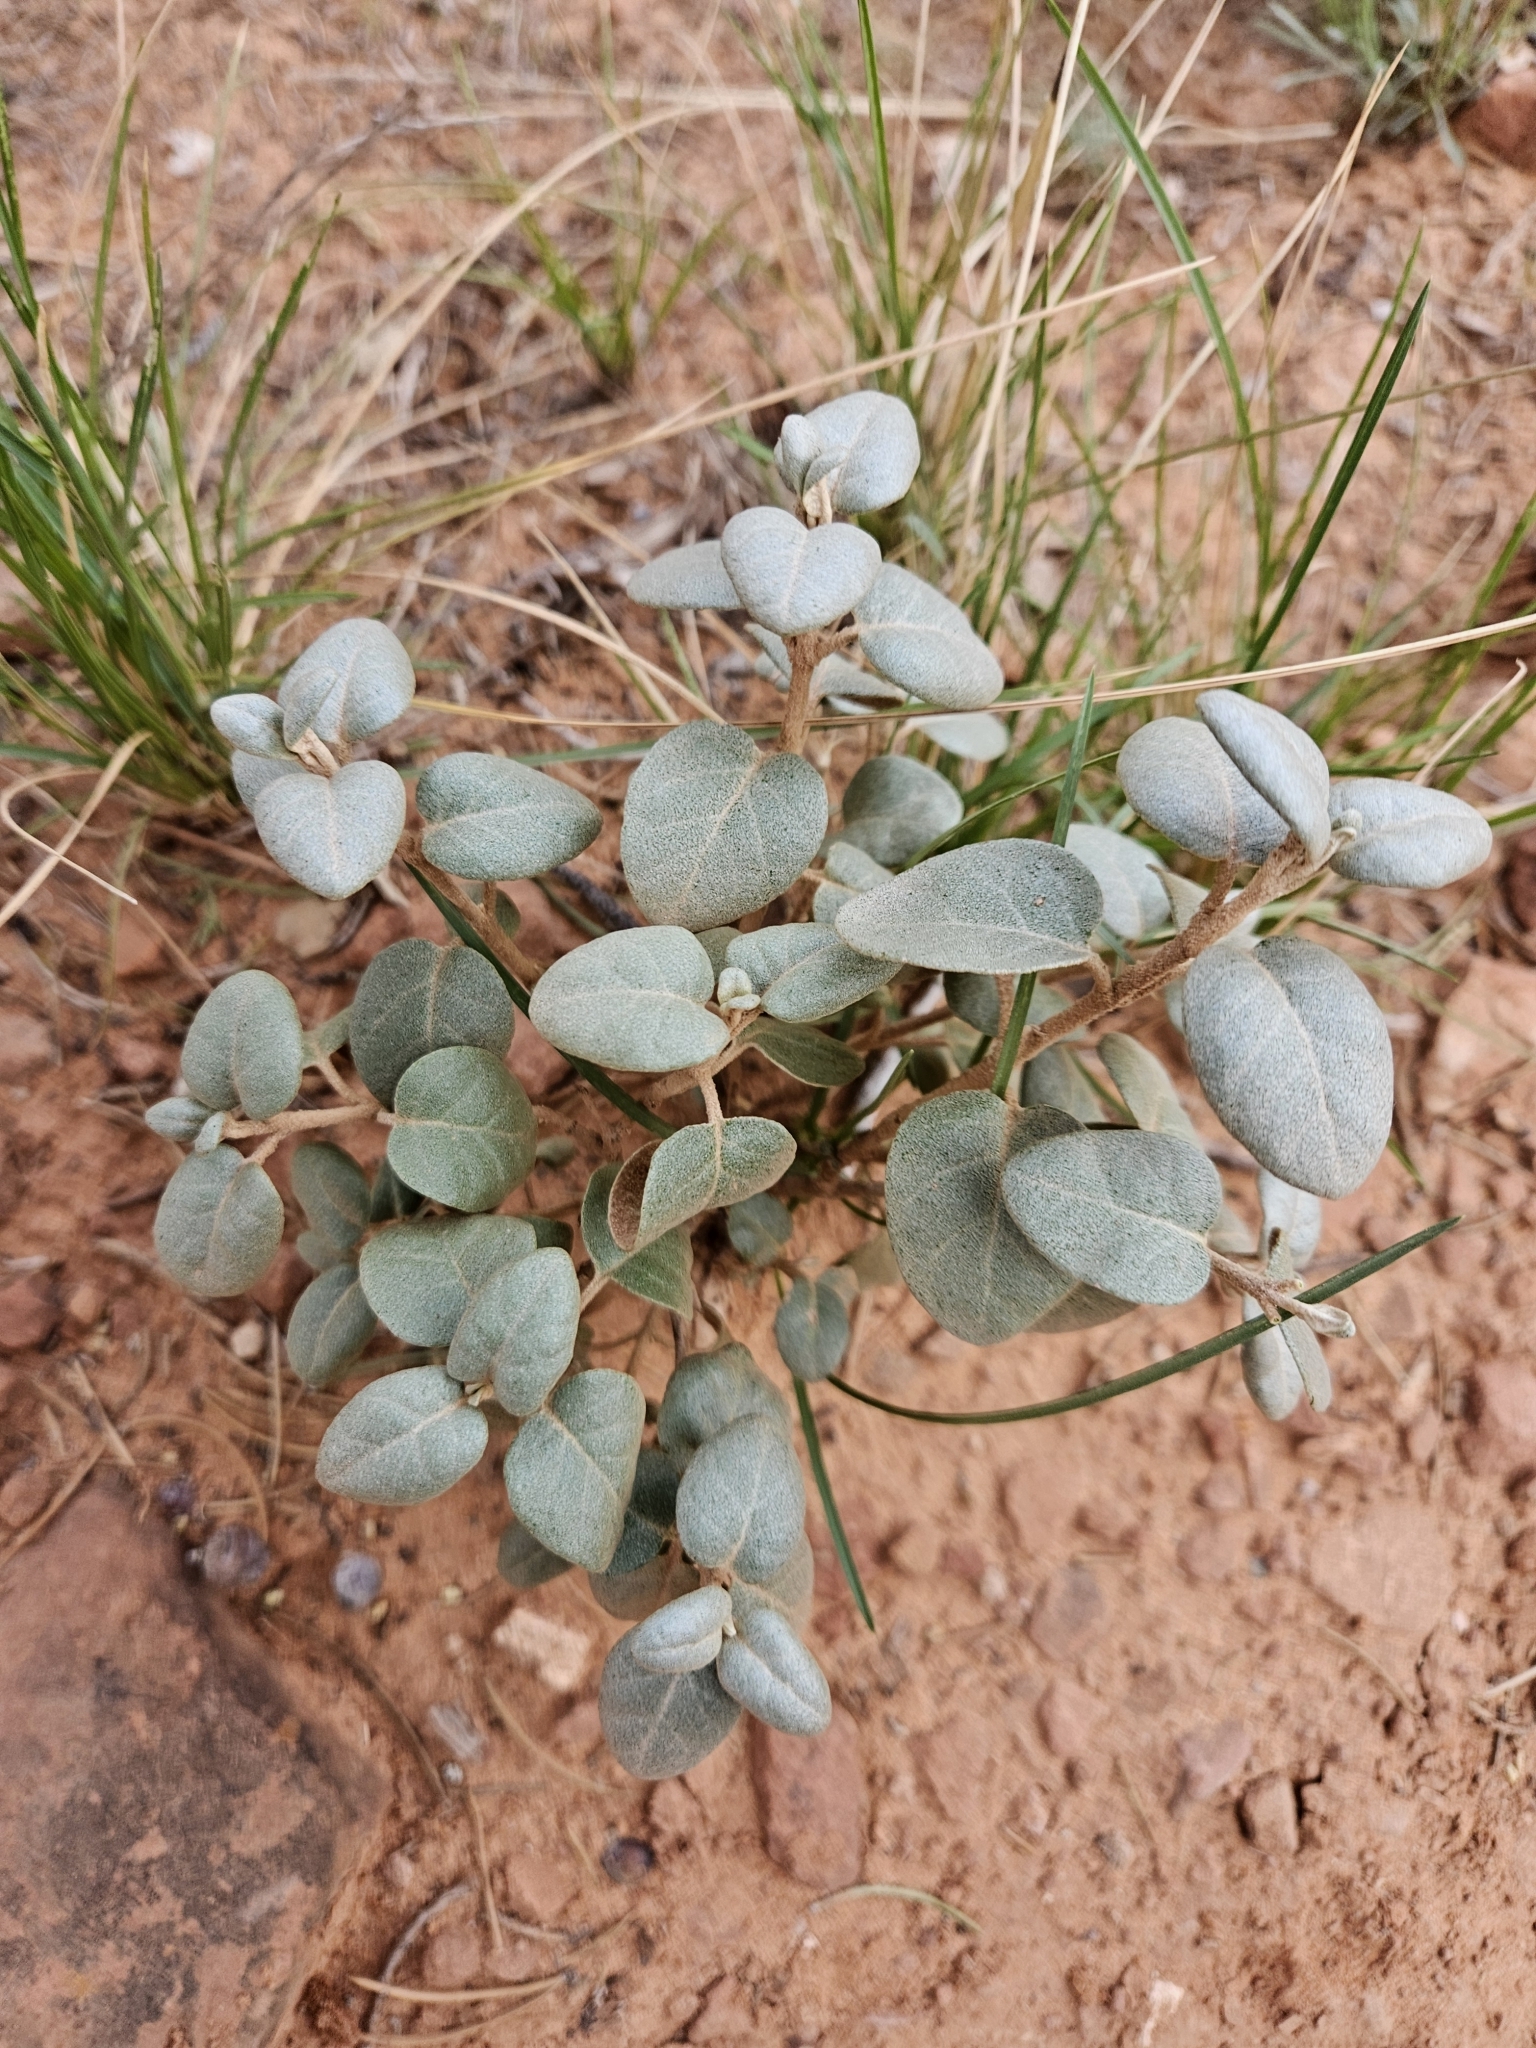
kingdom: Plantae
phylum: Tracheophyta
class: Magnoliopsida
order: Rosales
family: Elaeagnaceae
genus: Shepherdia
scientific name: Shepherdia rotundifolia
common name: Silverscale
